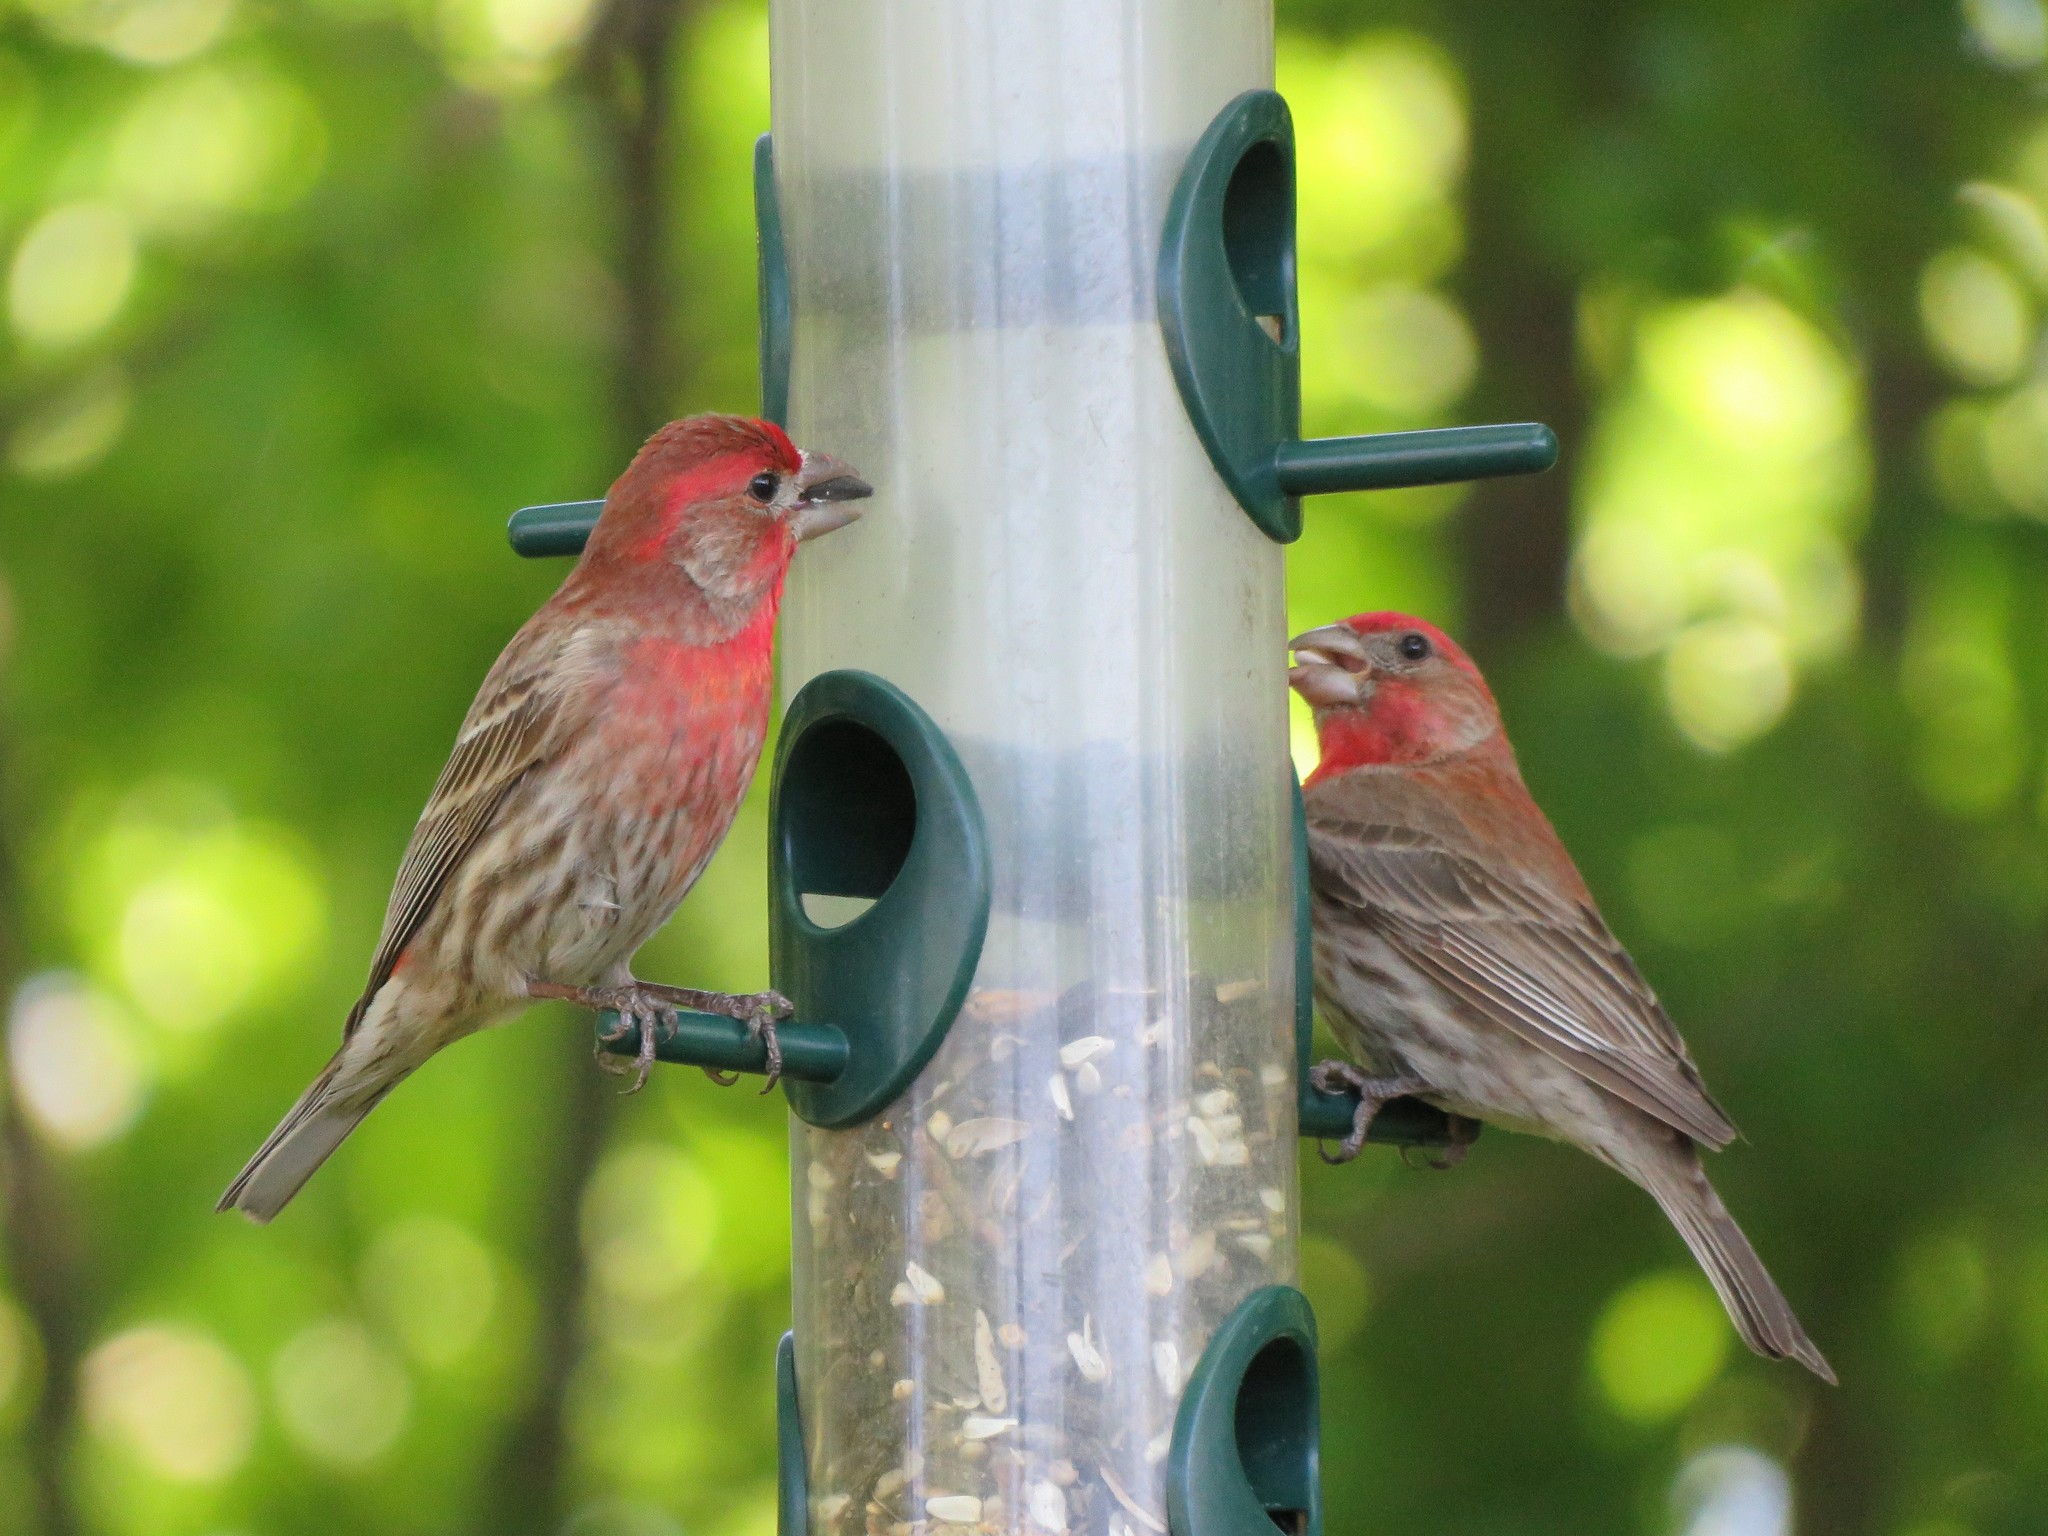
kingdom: Animalia
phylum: Chordata
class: Aves
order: Passeriformes
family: Fringillidae
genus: Haemorhous
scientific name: Haemorhous mexicanus
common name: House finch
